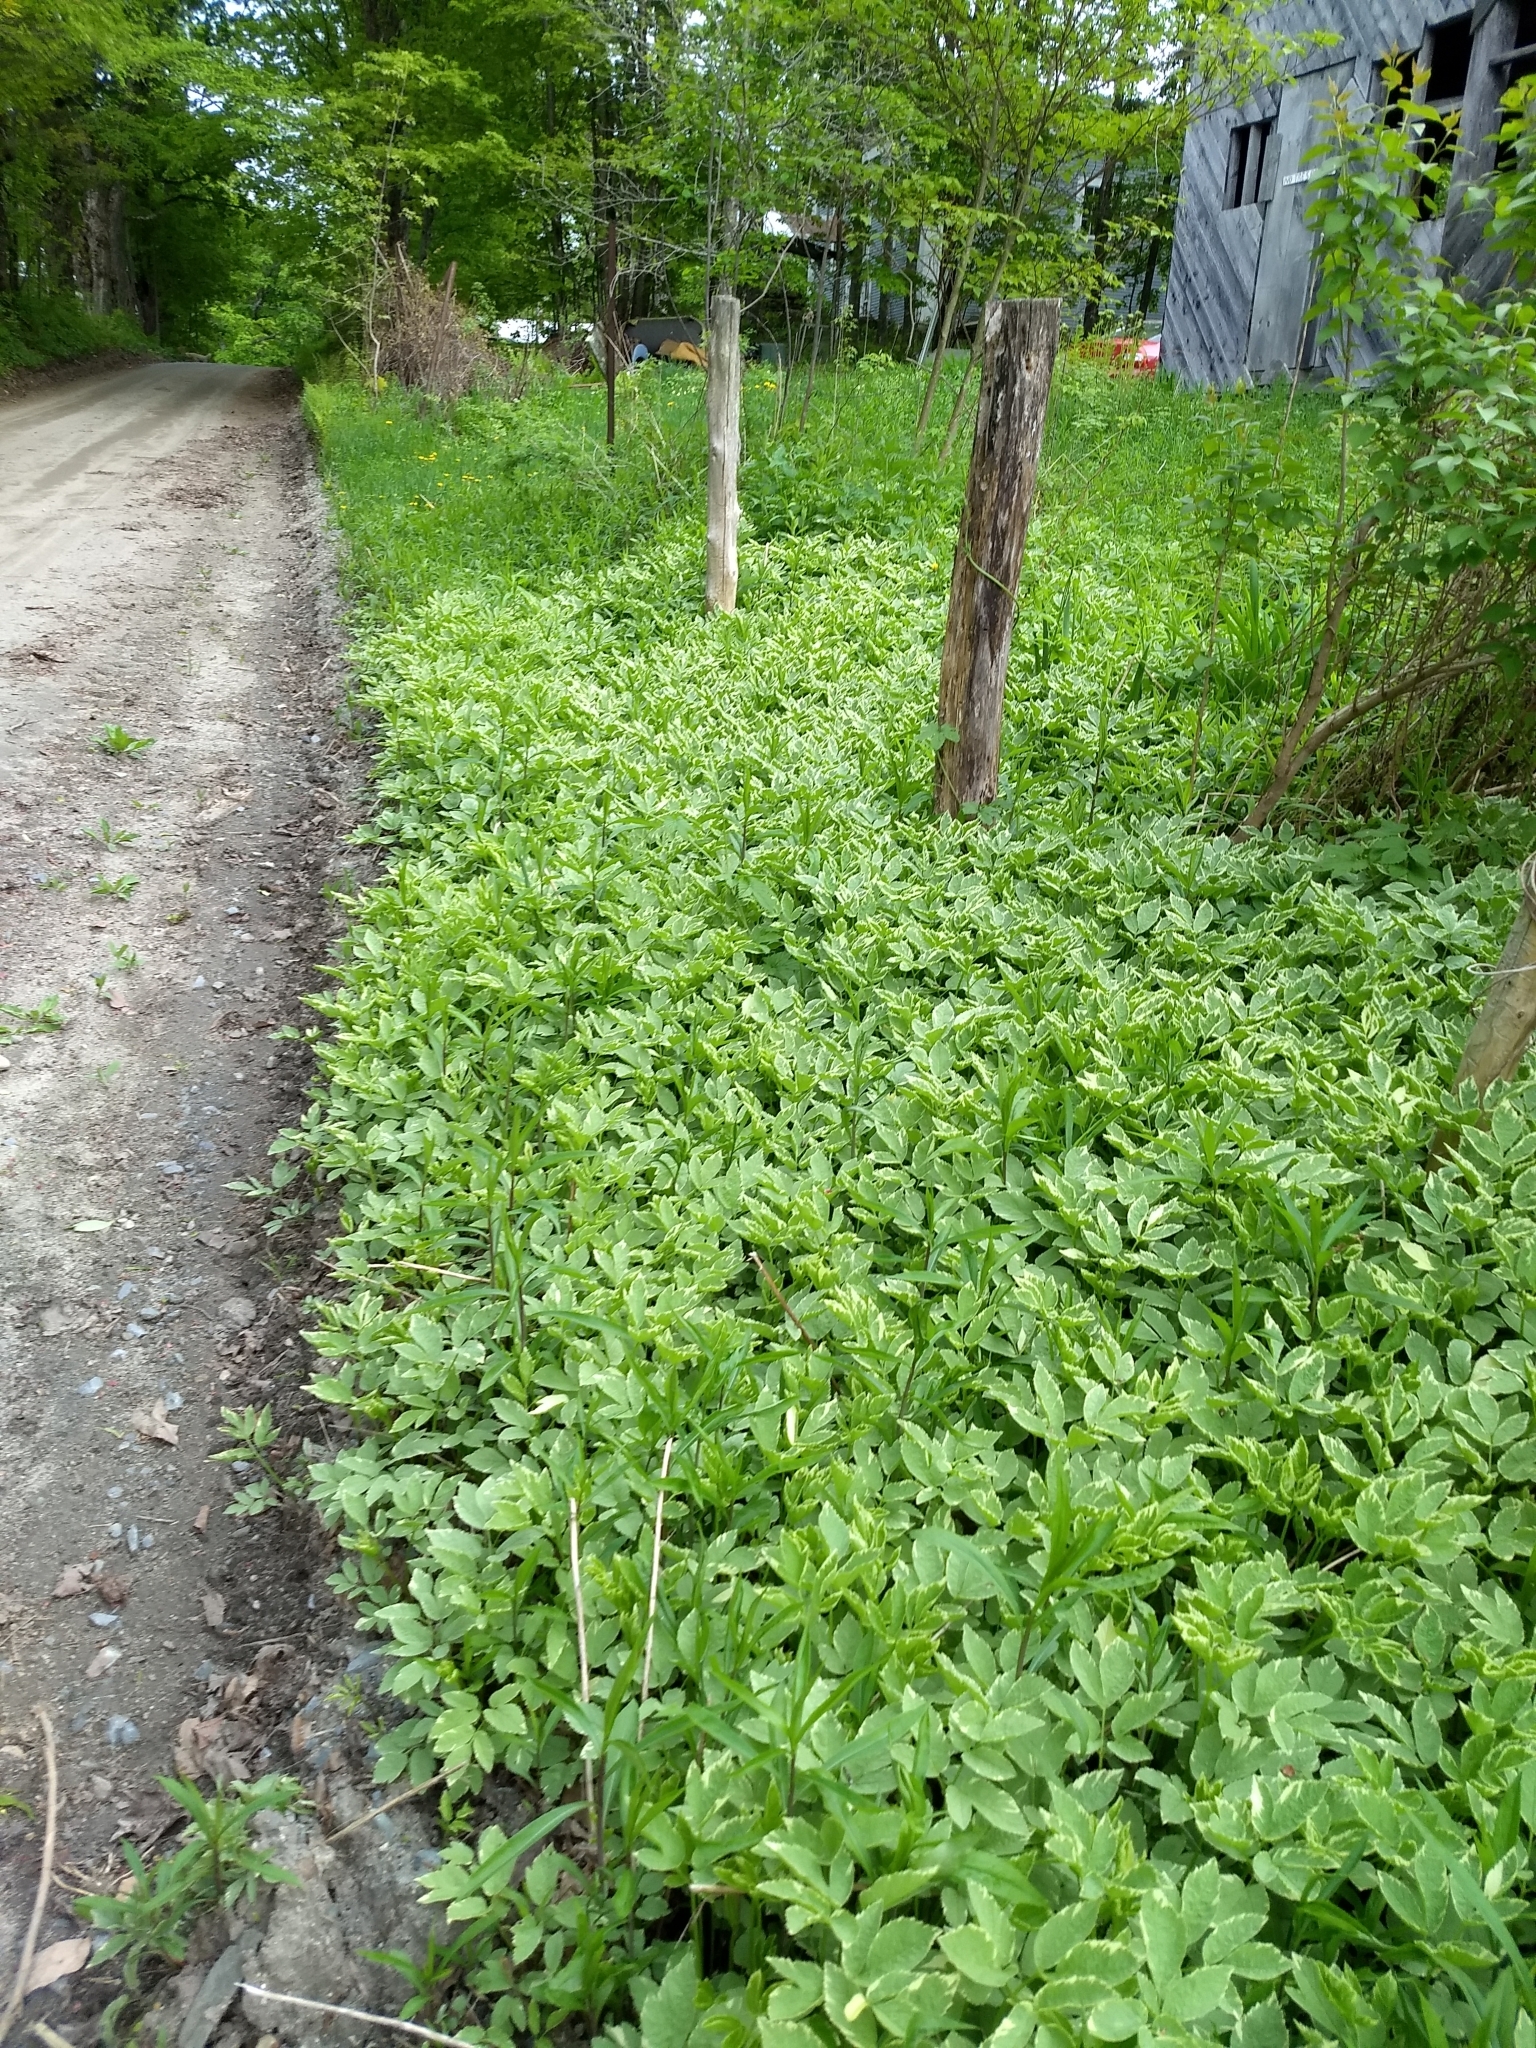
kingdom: Plantae
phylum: Tracheophyta
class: Magnoliopsida
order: Apiales
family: Apiaceae
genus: Aegopodium
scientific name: Aegopodium podagraria
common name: Ground-elder
